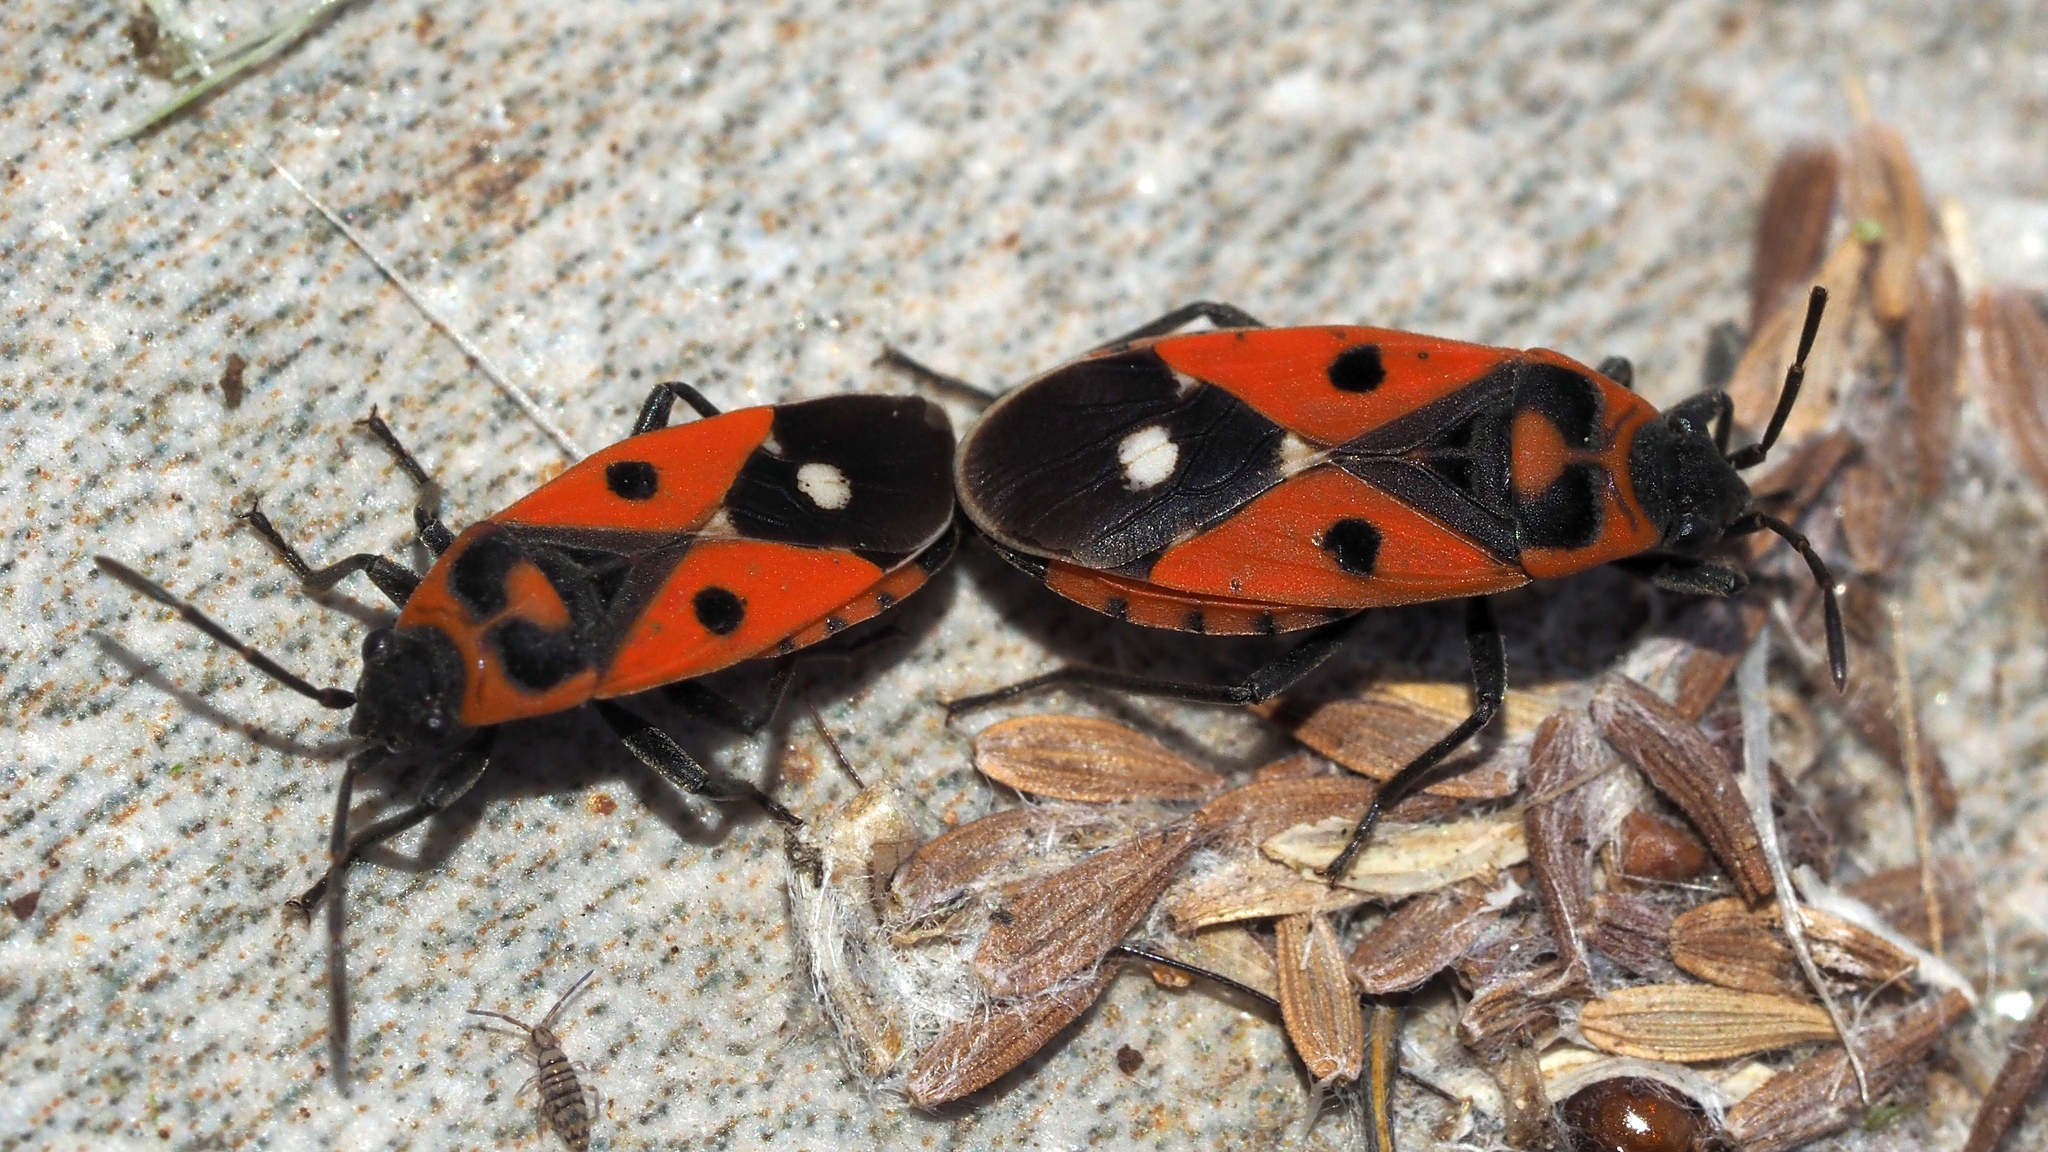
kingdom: Animalia
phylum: Arthropoda
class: Insecta
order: Hemiptera
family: Lygaeidae
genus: Melanocoryphus
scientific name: Melanocoryphus albomaculatus
